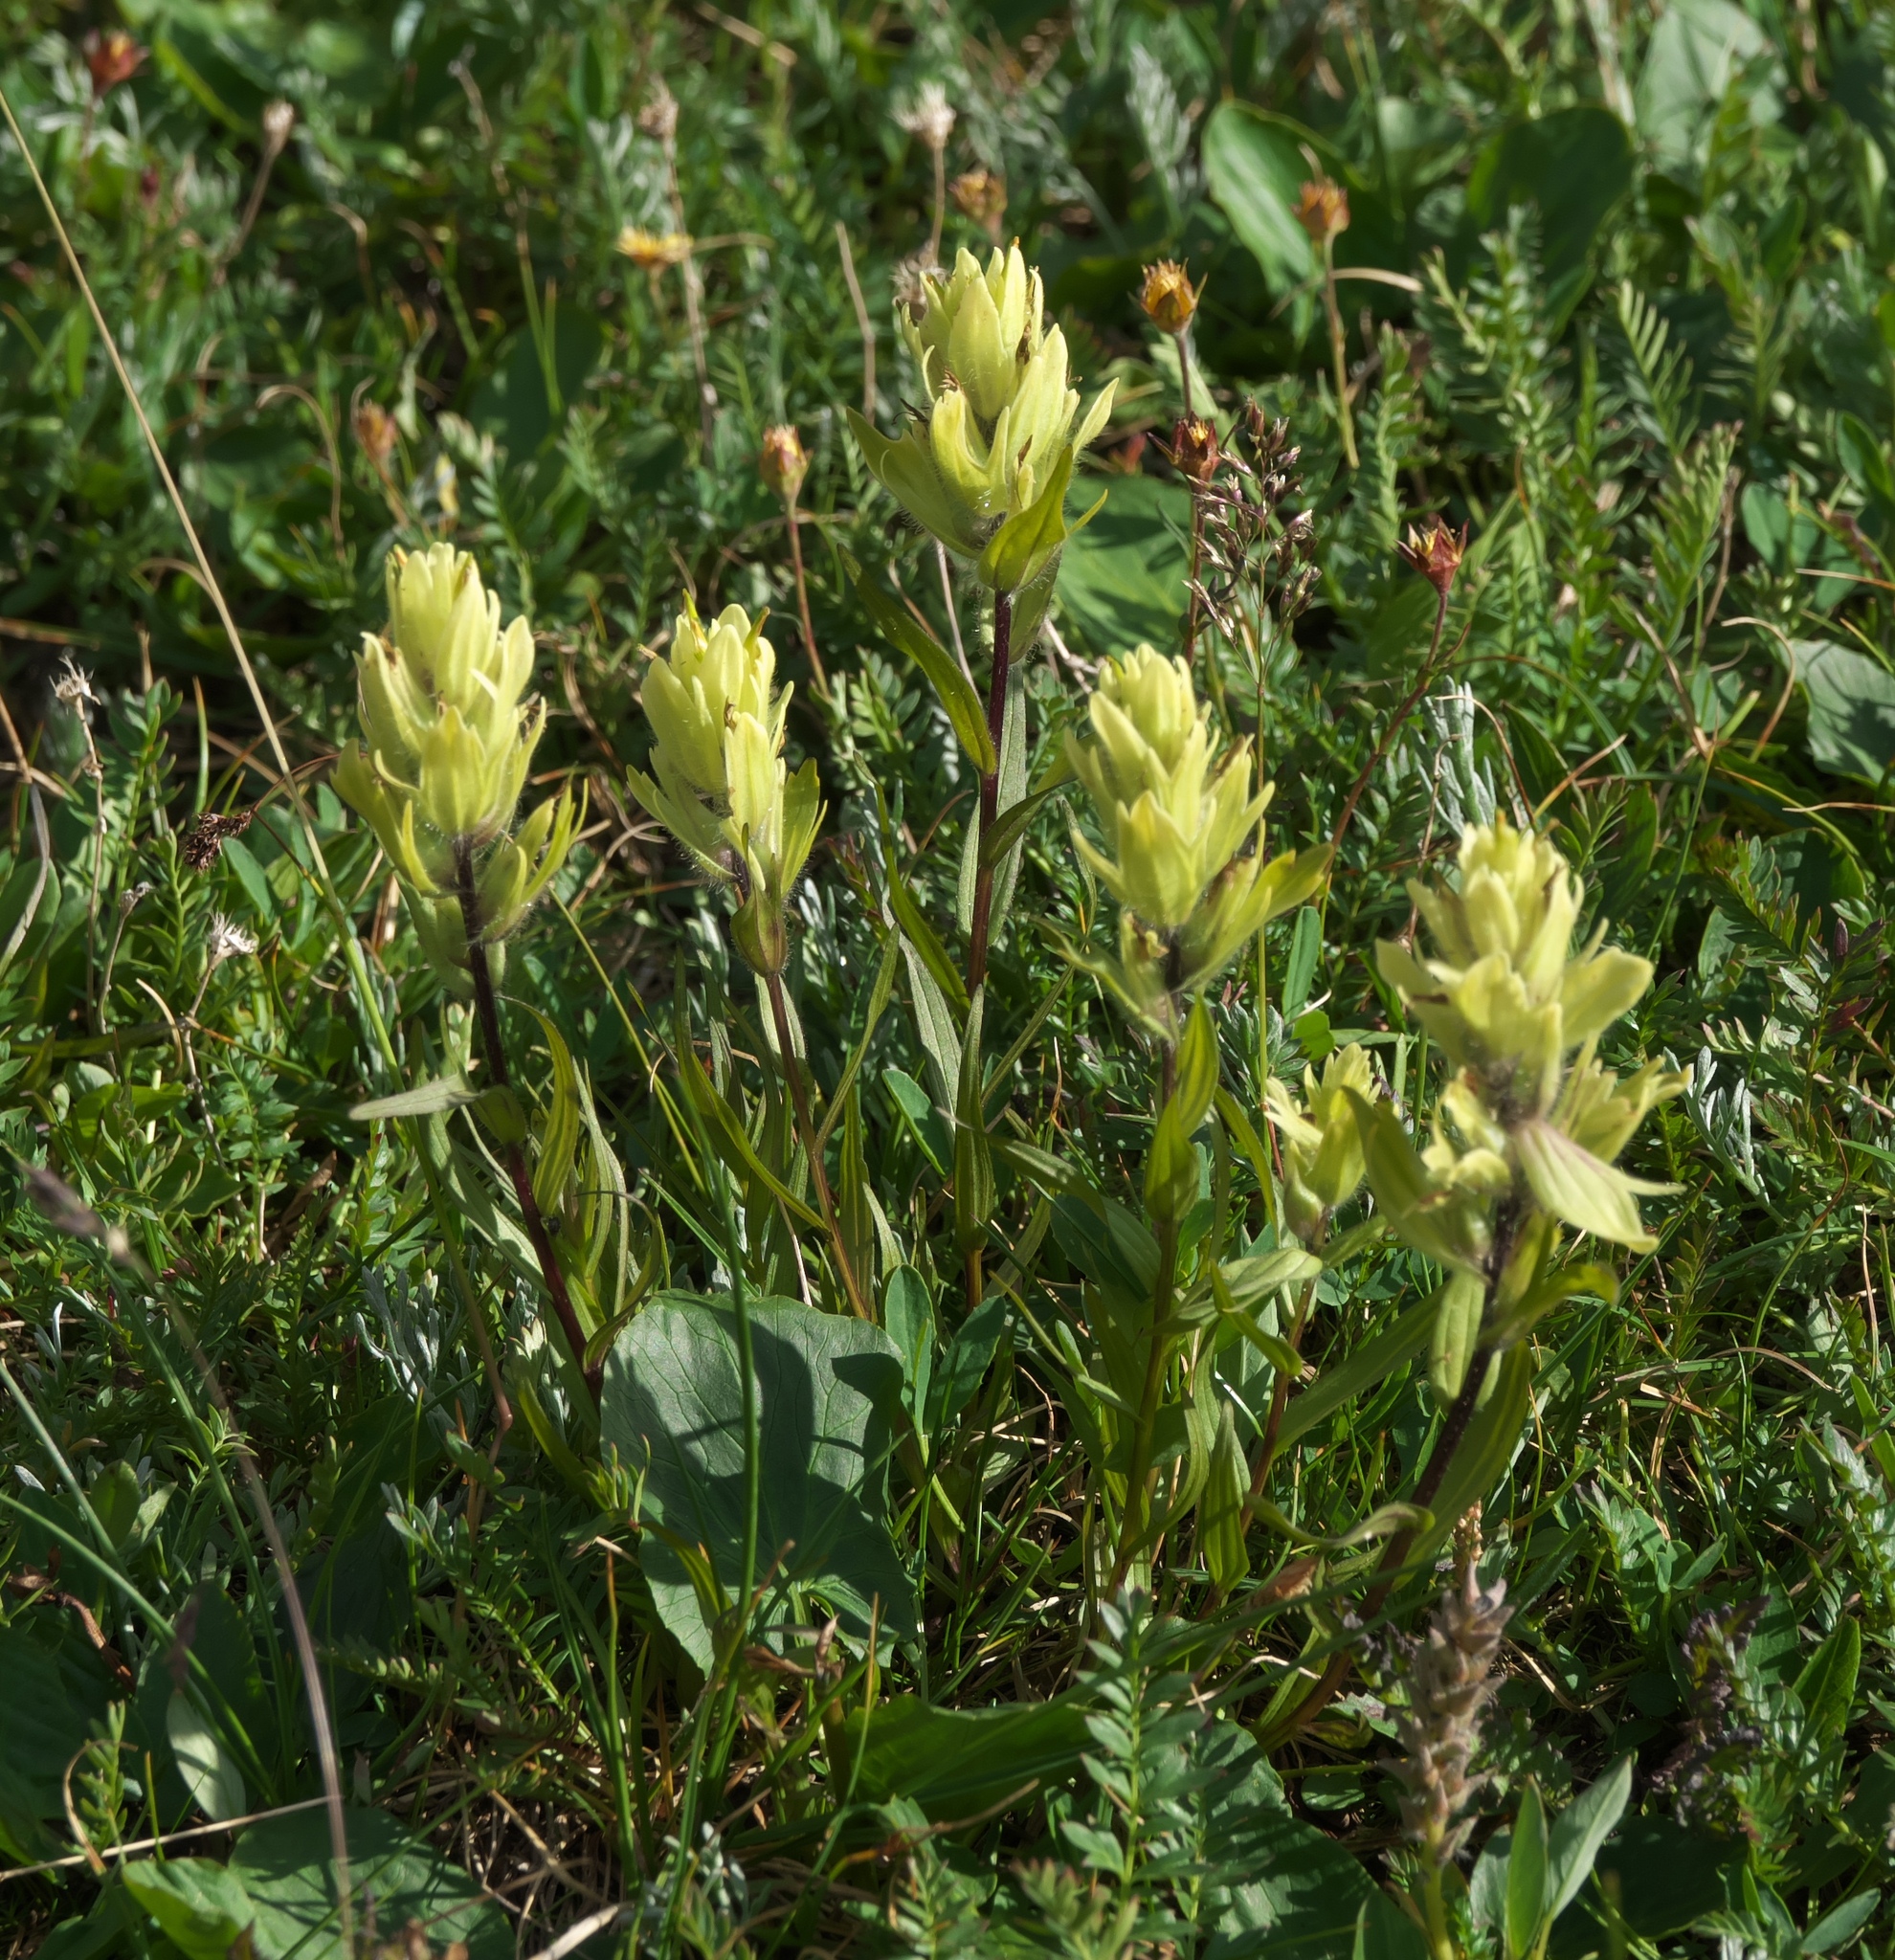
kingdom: Plantae
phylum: Tracheophyta
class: Magnoliopsida
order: Lamiales
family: Orobanchaceae
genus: Castilleja
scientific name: Castilleja occidentalis
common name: Western paintbrush
